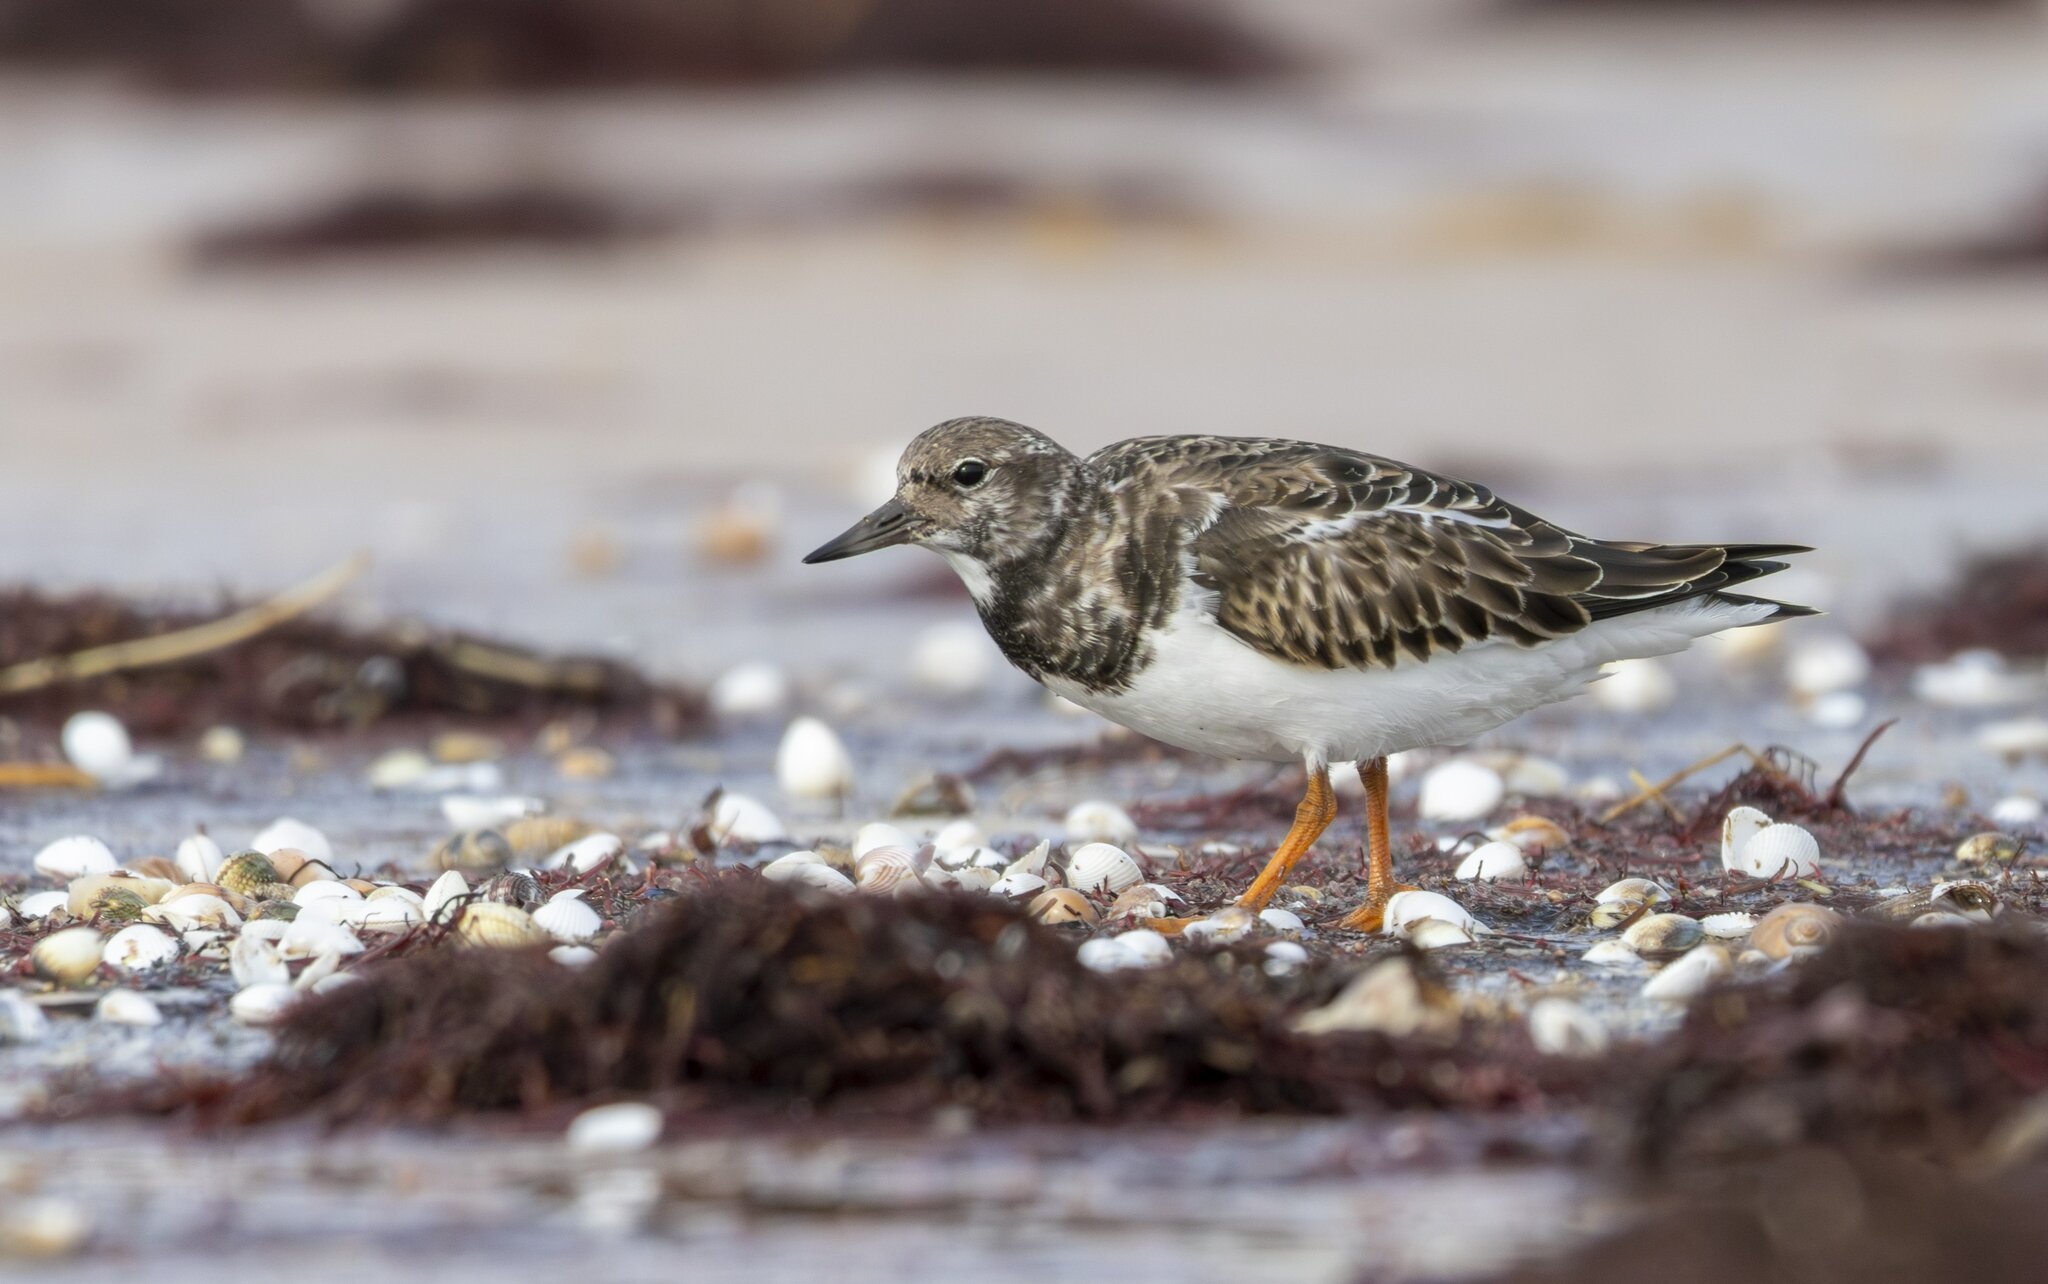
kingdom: Animalia
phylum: Chordata
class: Aves
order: Charadriiformes
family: Scolopacidae
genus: Arenaria
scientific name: Arenaria interpres
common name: Ruddy turnstone
